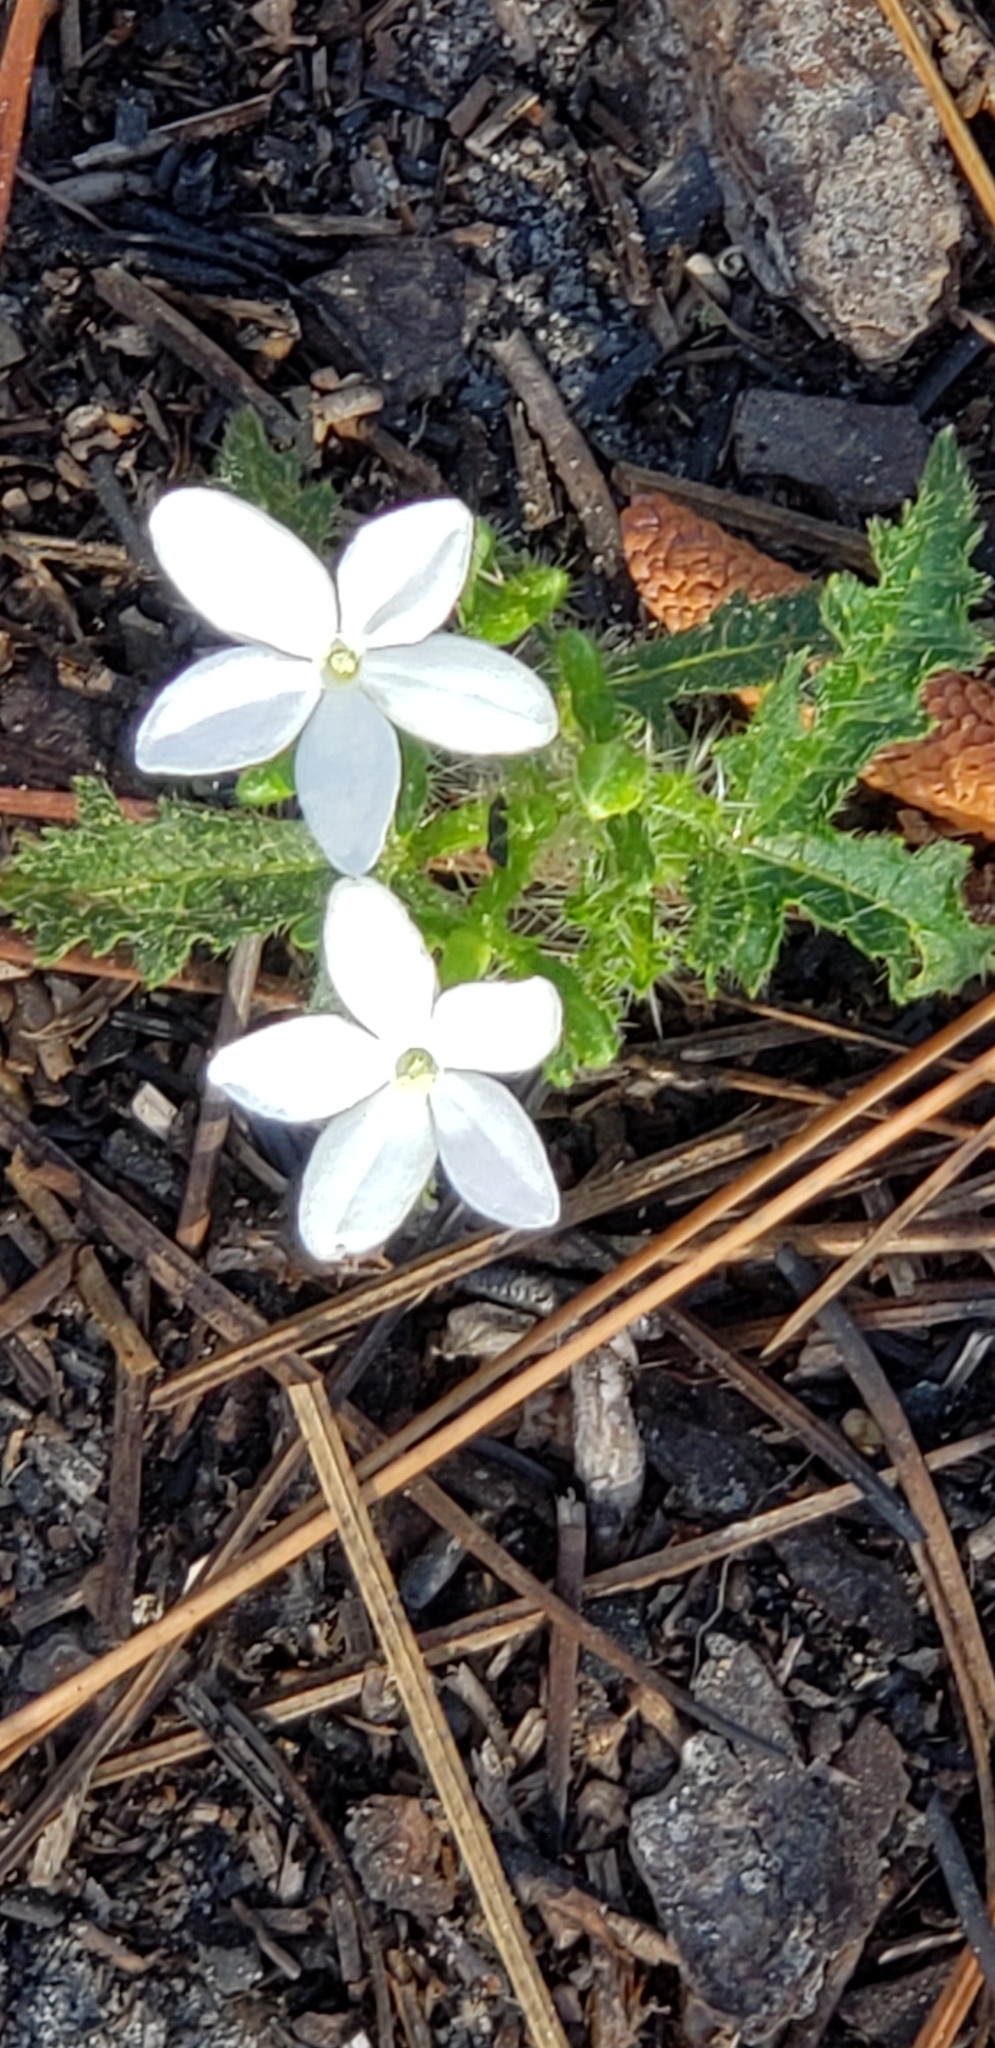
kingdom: Plantae
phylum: Tracheophyta
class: Magnoliopsida
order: Malpighiales
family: Euphorbiaceae
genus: Cnidoscolus
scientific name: Cnidoscolus stimulosus
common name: Bull-nettle
